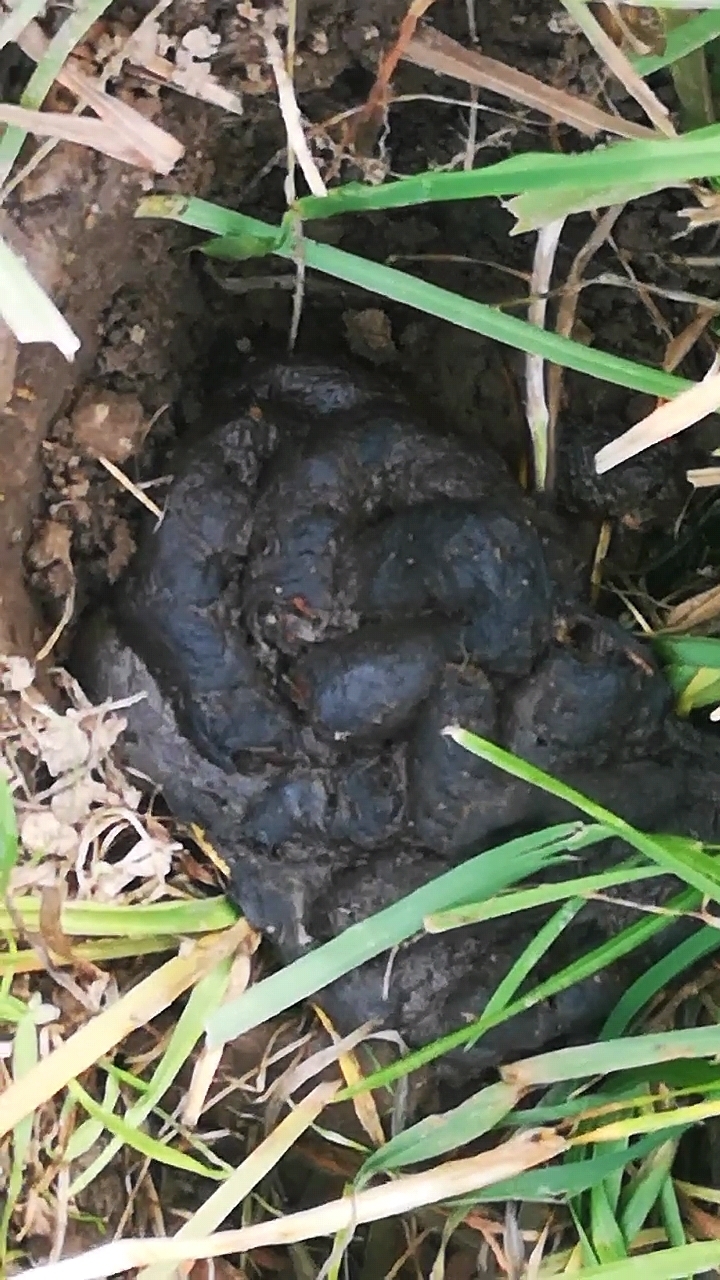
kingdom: Animalia
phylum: Chordata
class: Mammalia
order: Carnivora
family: Mustelidae
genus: Meles
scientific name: Meles meles
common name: Eurasian badger
